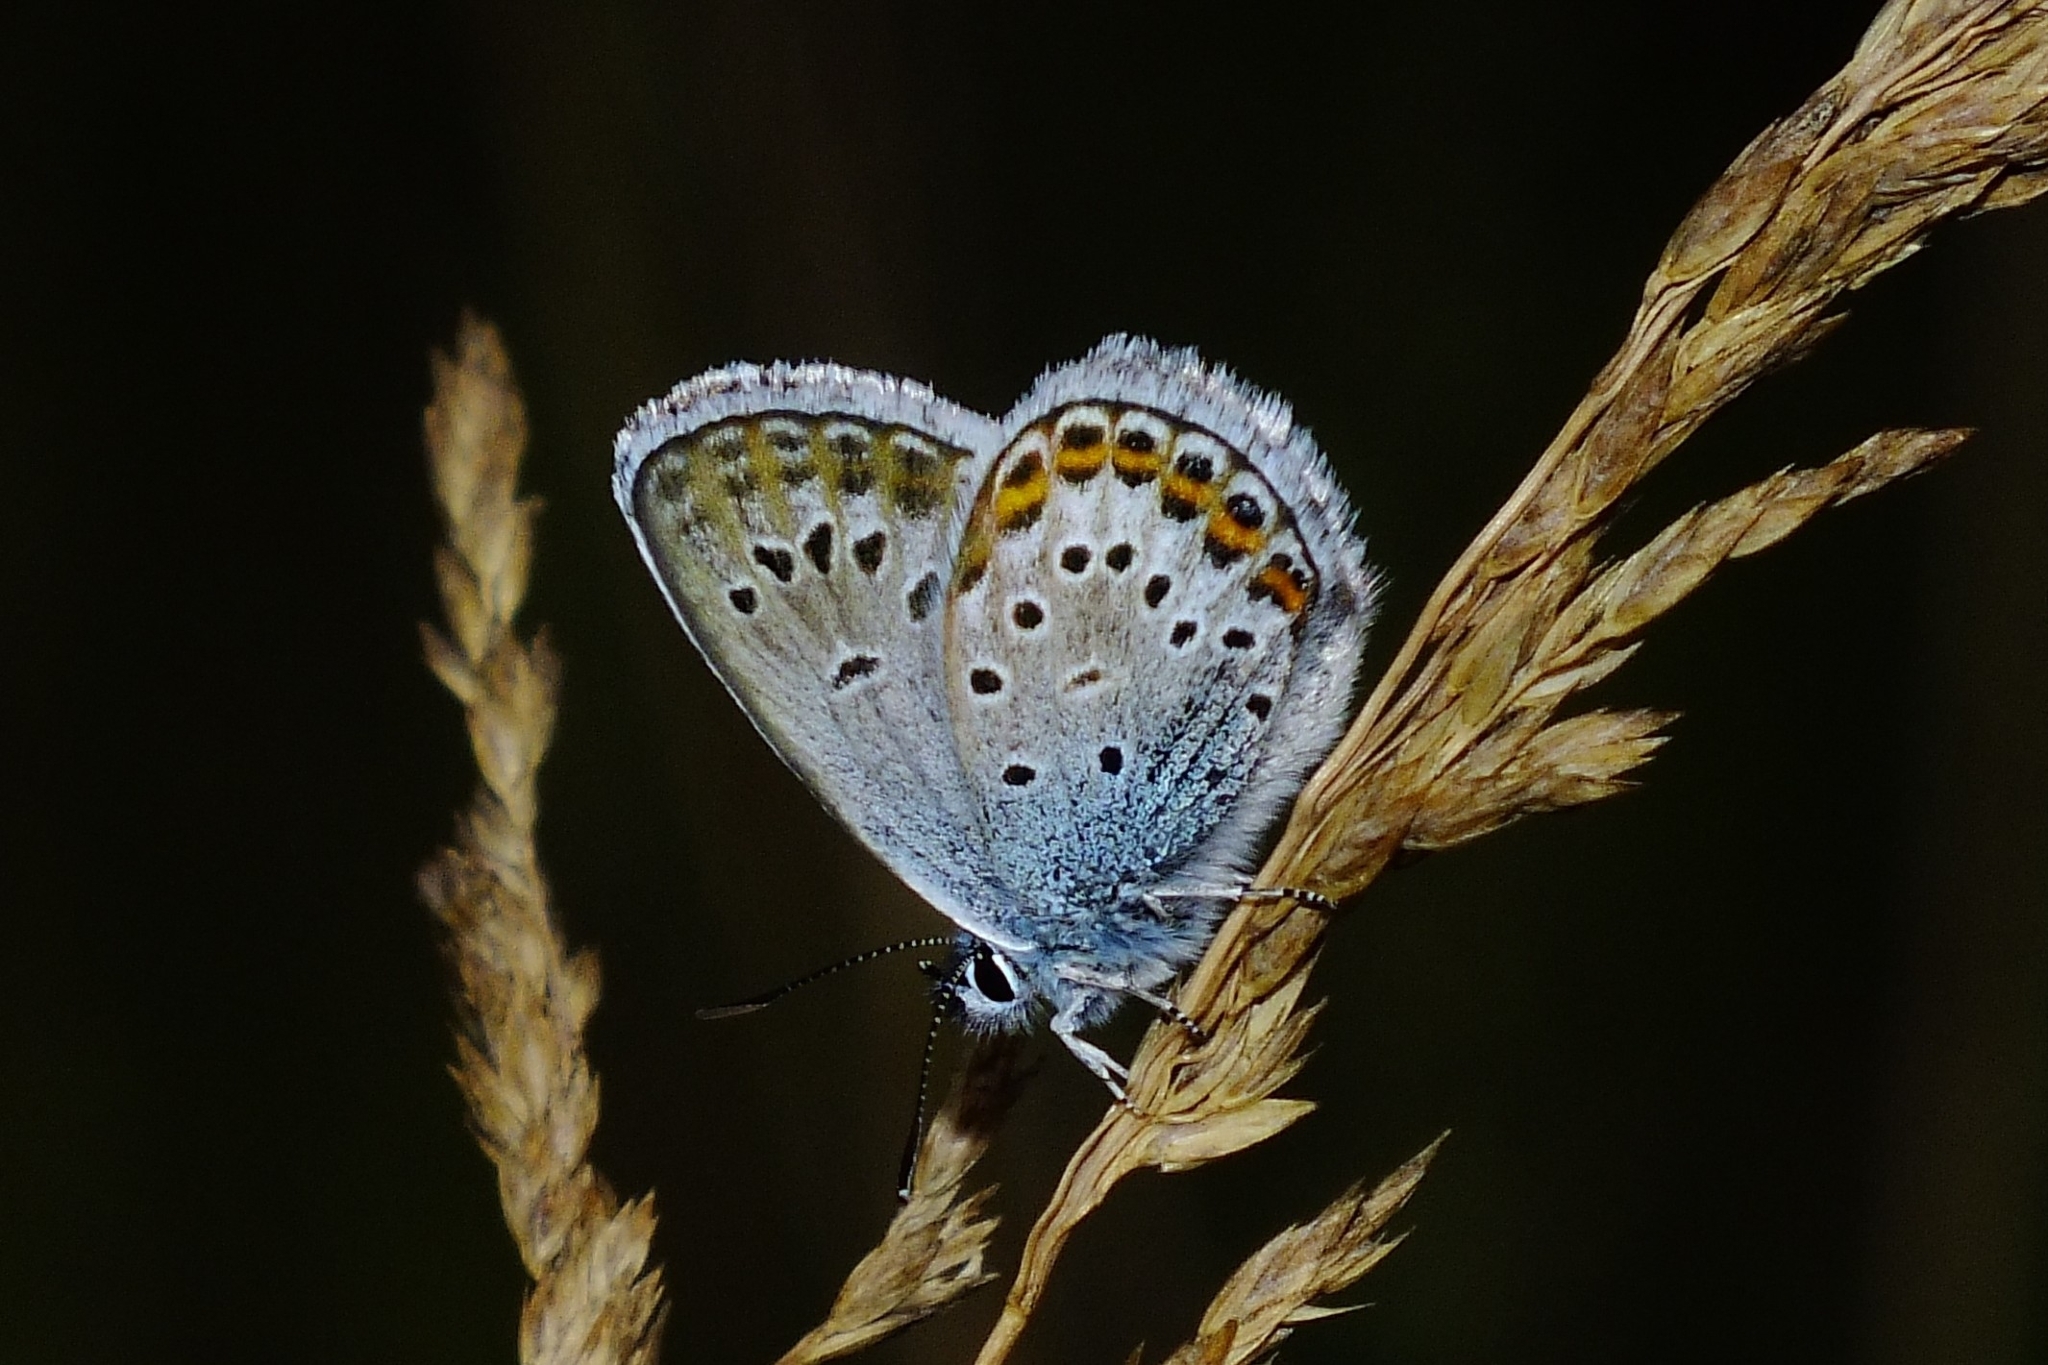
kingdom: Animalia
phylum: Arthropoda
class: Insecta
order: Lepidoptera
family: Lycaenidae
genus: Plebejus
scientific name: Plebejus argus
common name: Silver-studded blue
